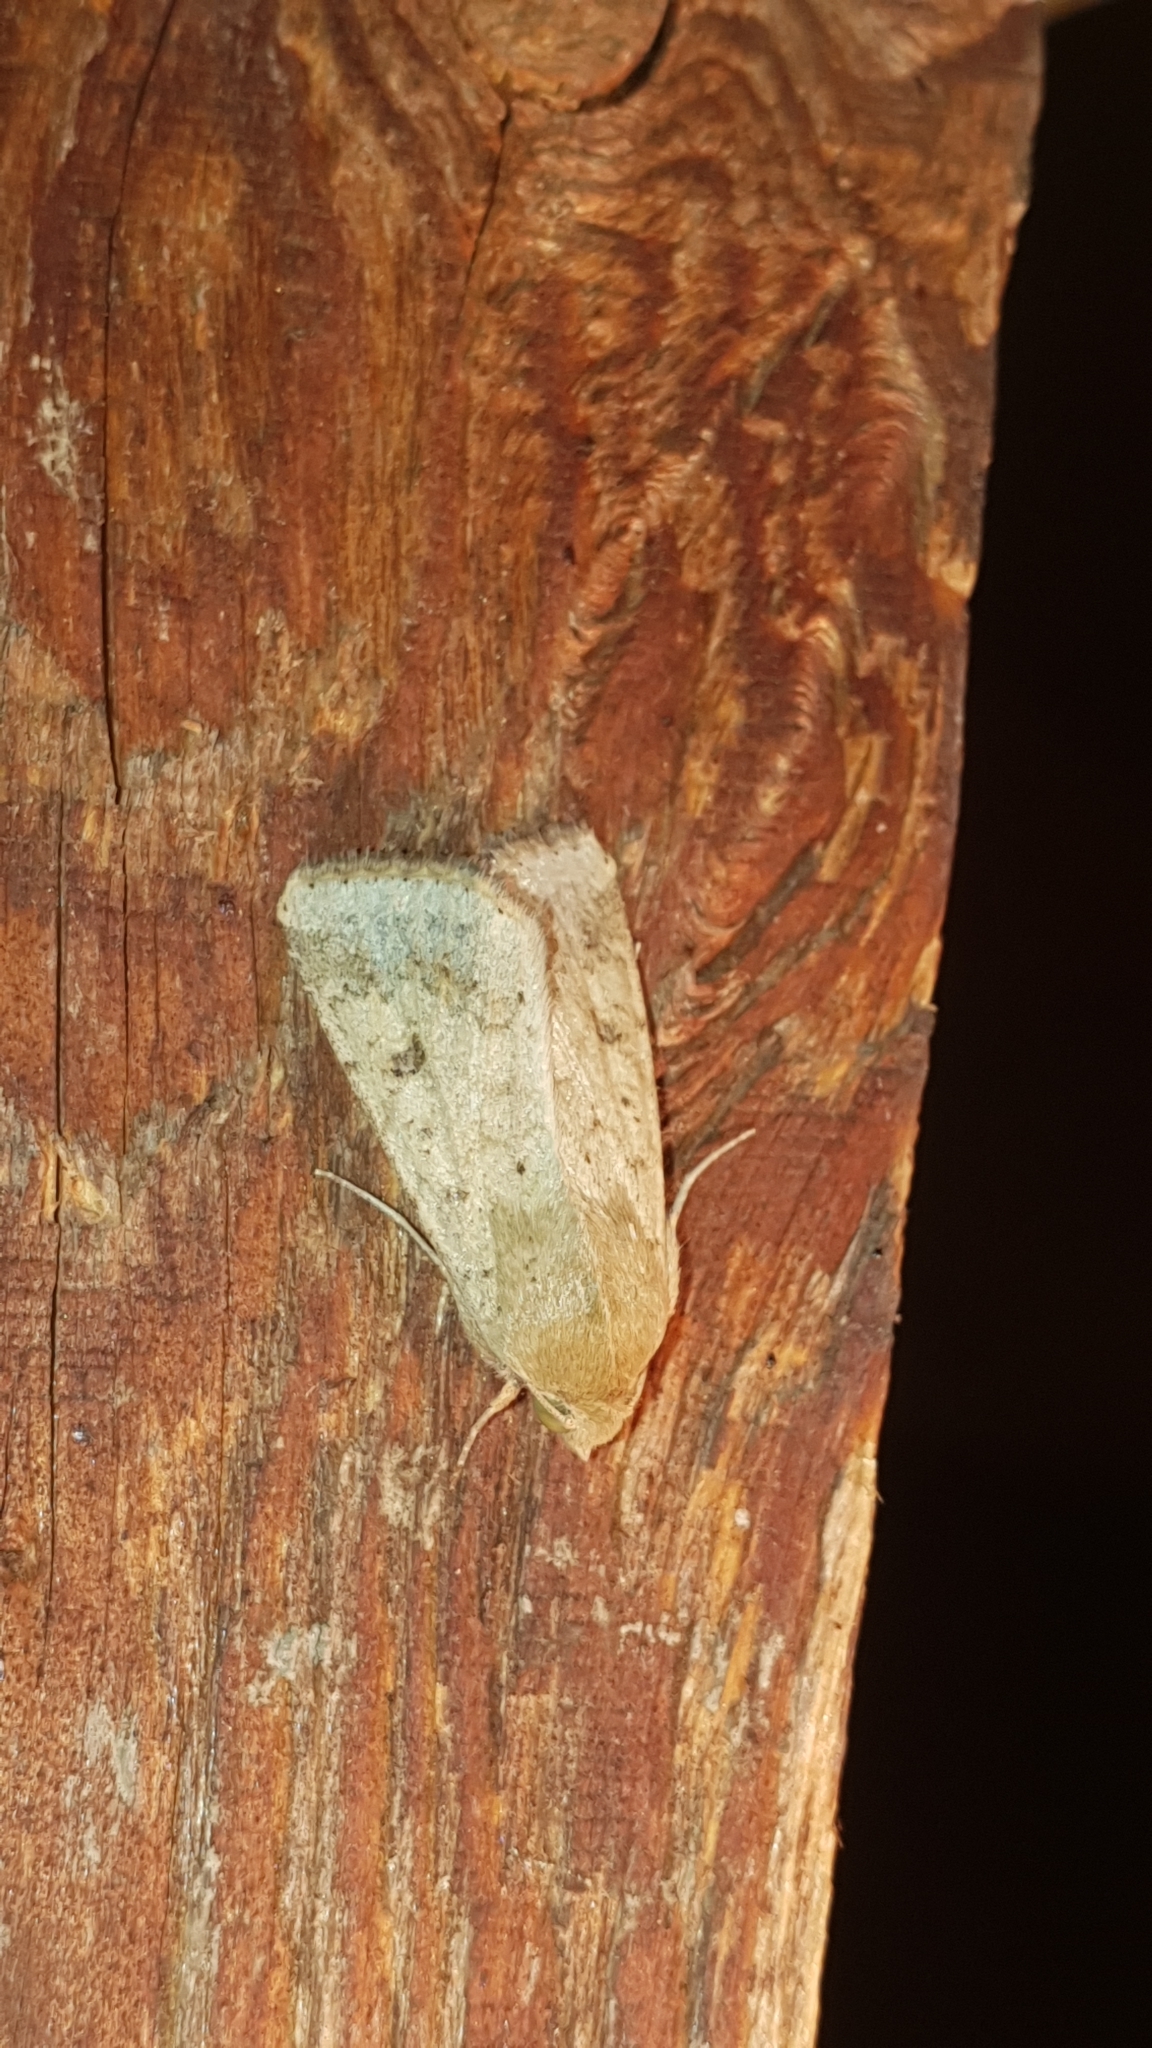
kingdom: Animalia
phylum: Arthropoda
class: Insecta
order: Lepidoptera
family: Noctuidae
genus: Helicoverpa
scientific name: Helicoverpa armigera
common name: Cotton bollworm
